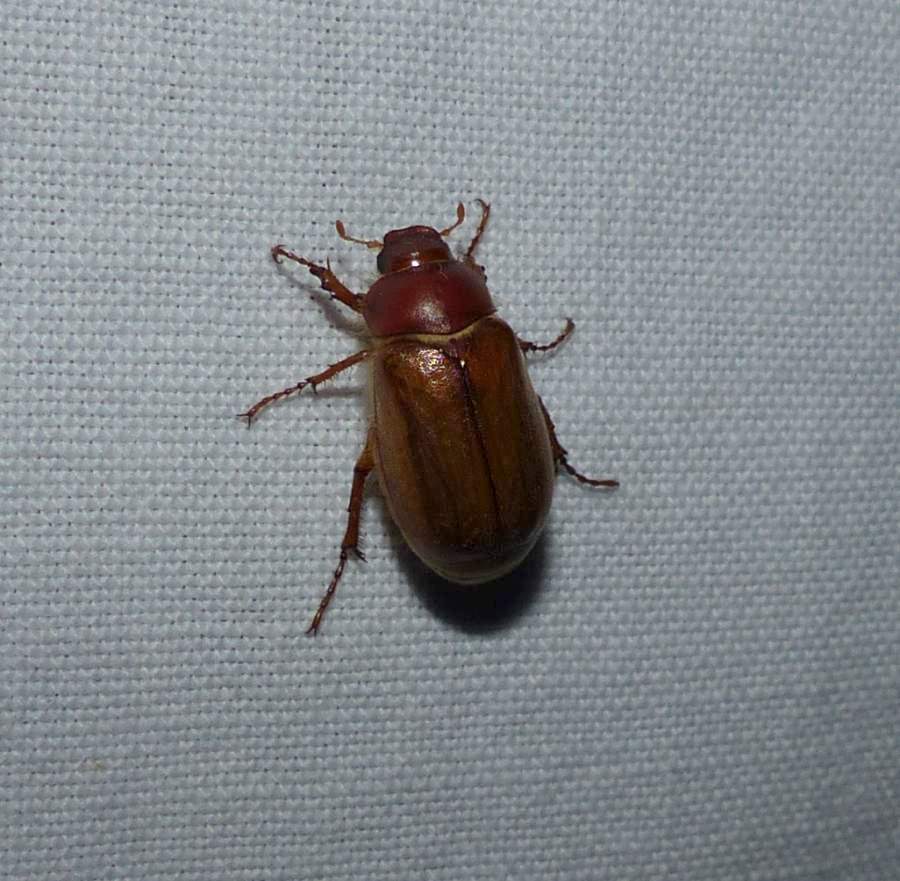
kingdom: Animalia
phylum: Arthropoda
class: Insecta
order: Coleoptera
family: Scarabaeidae
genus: Amphimallon
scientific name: Amphimallon majale
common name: European chafer
